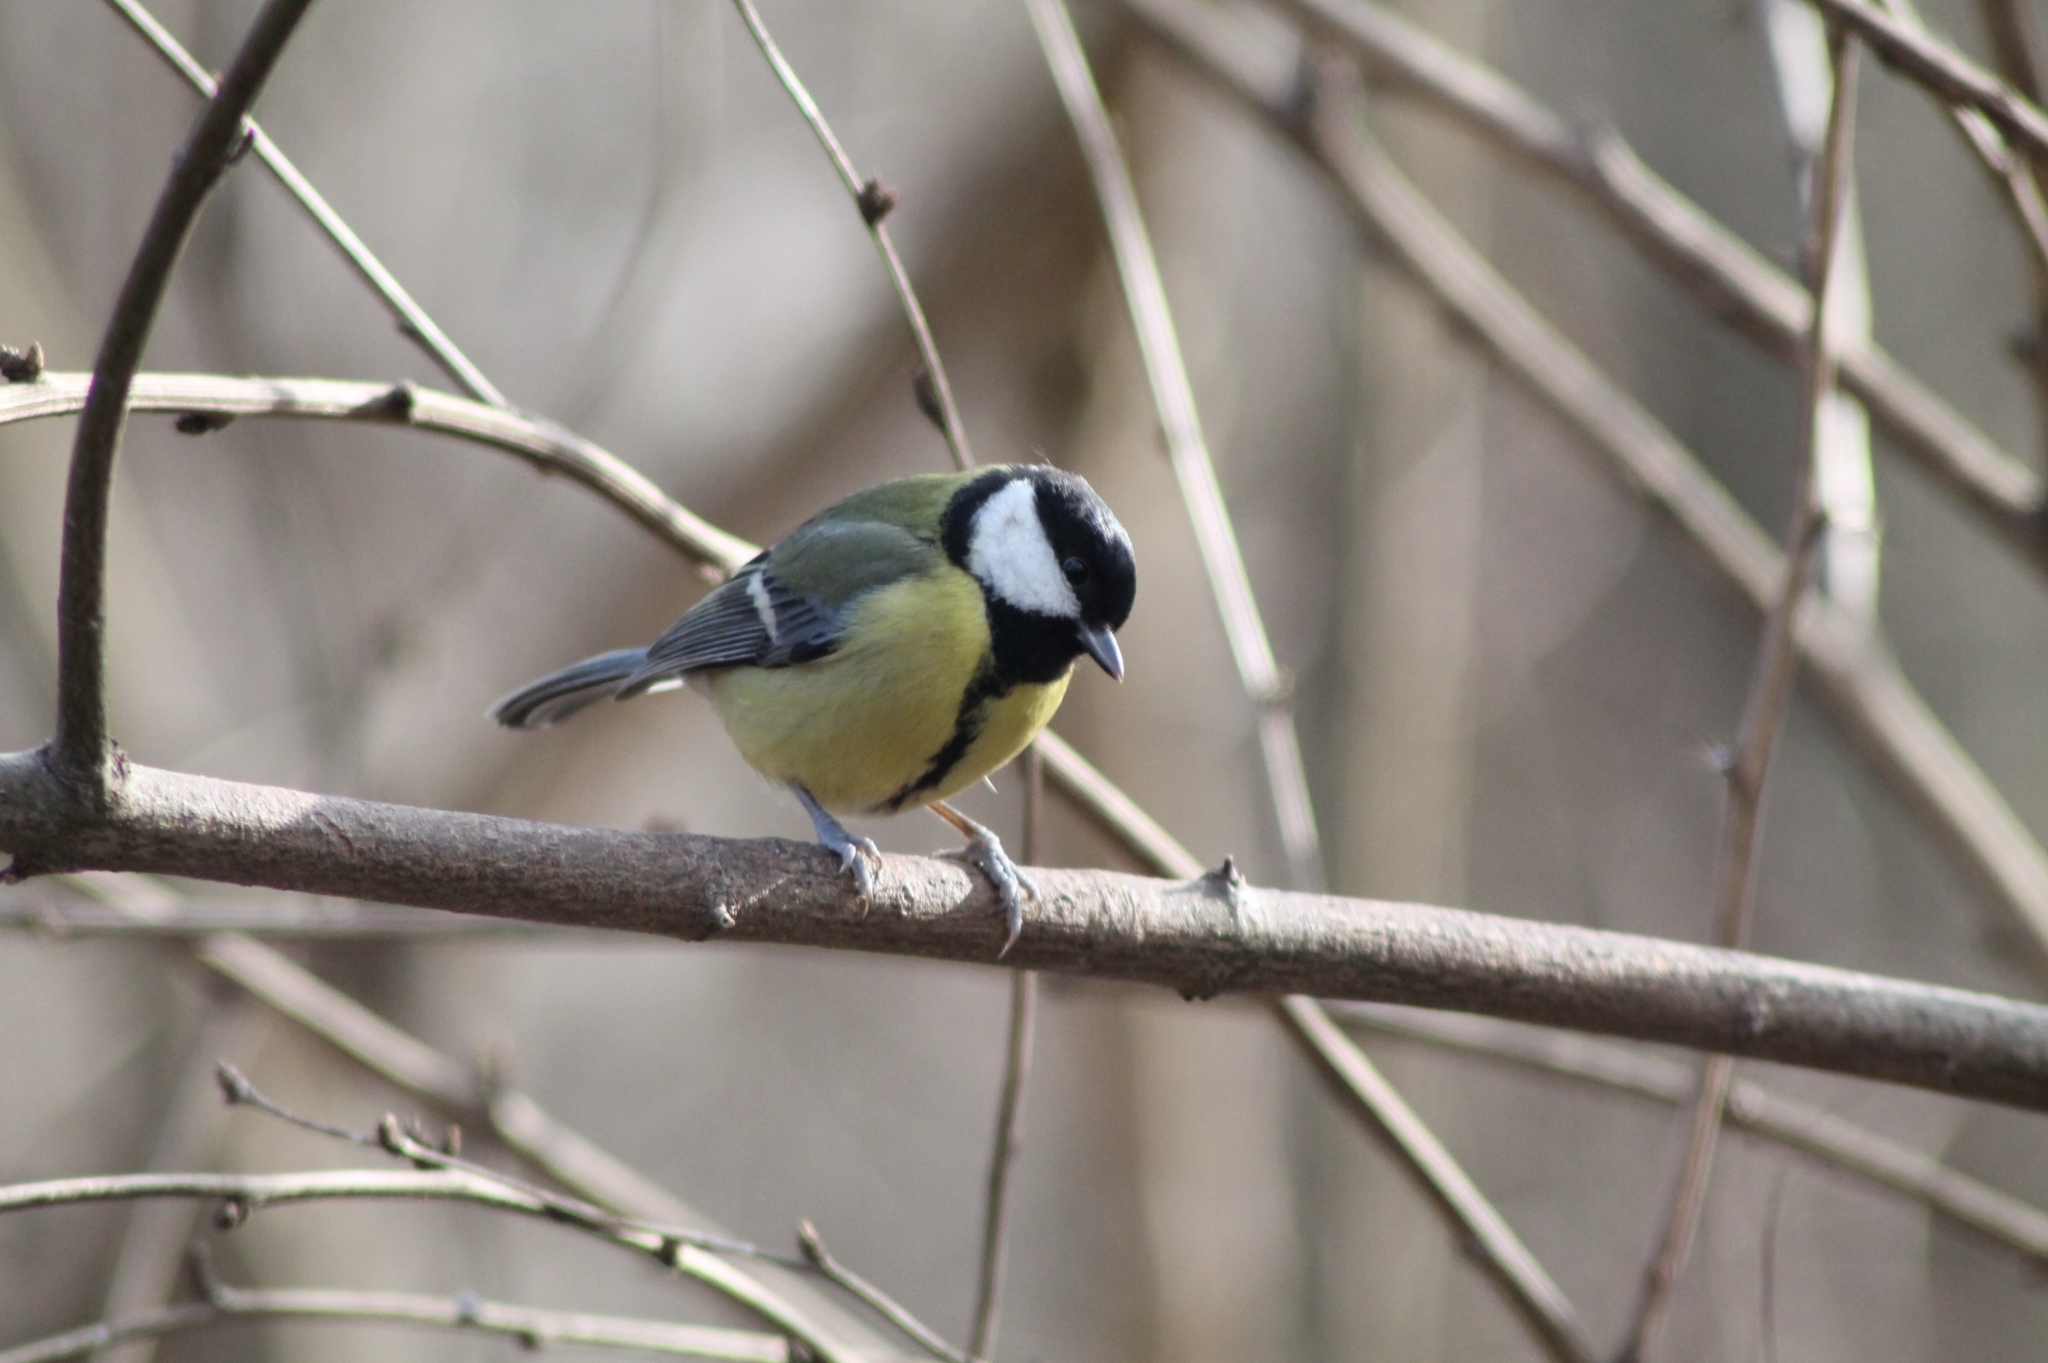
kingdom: Animalia
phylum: Chordata
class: Aves
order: Passeriformes
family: Paridae
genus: Parus
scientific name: Parus major
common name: Great tit
